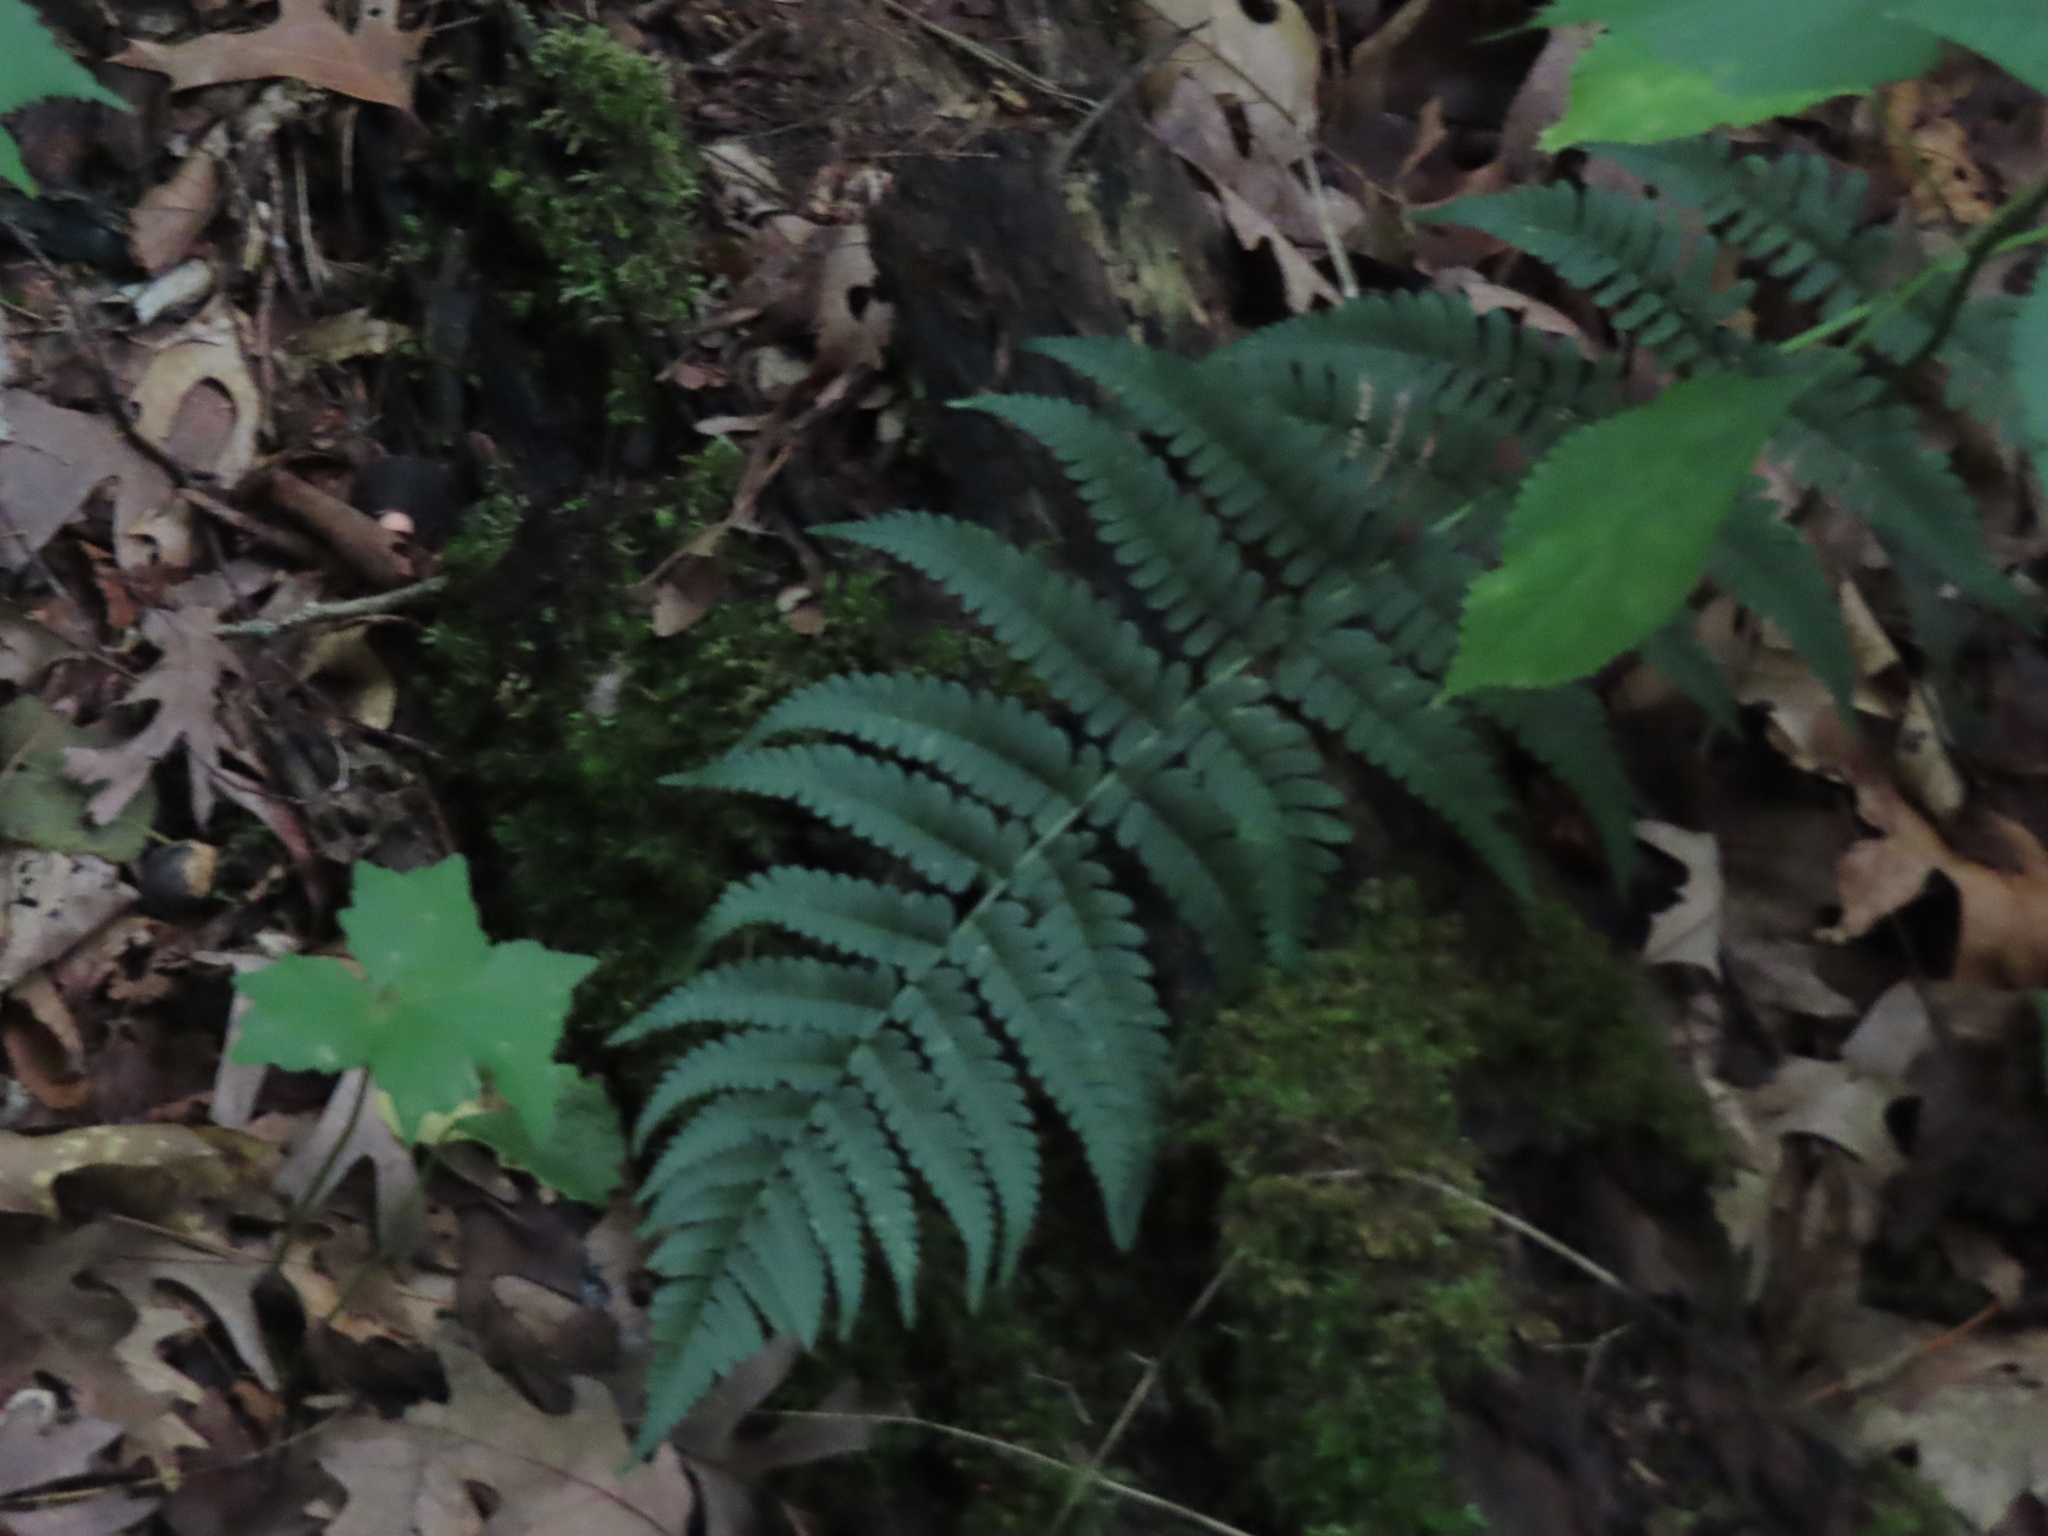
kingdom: Plantae
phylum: Tracheophyta
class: Polypodiopsida
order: Polypodiales
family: Dryopteridaceae
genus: Dryopteris
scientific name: Dryopteris marginalis
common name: Marginal wood fern
